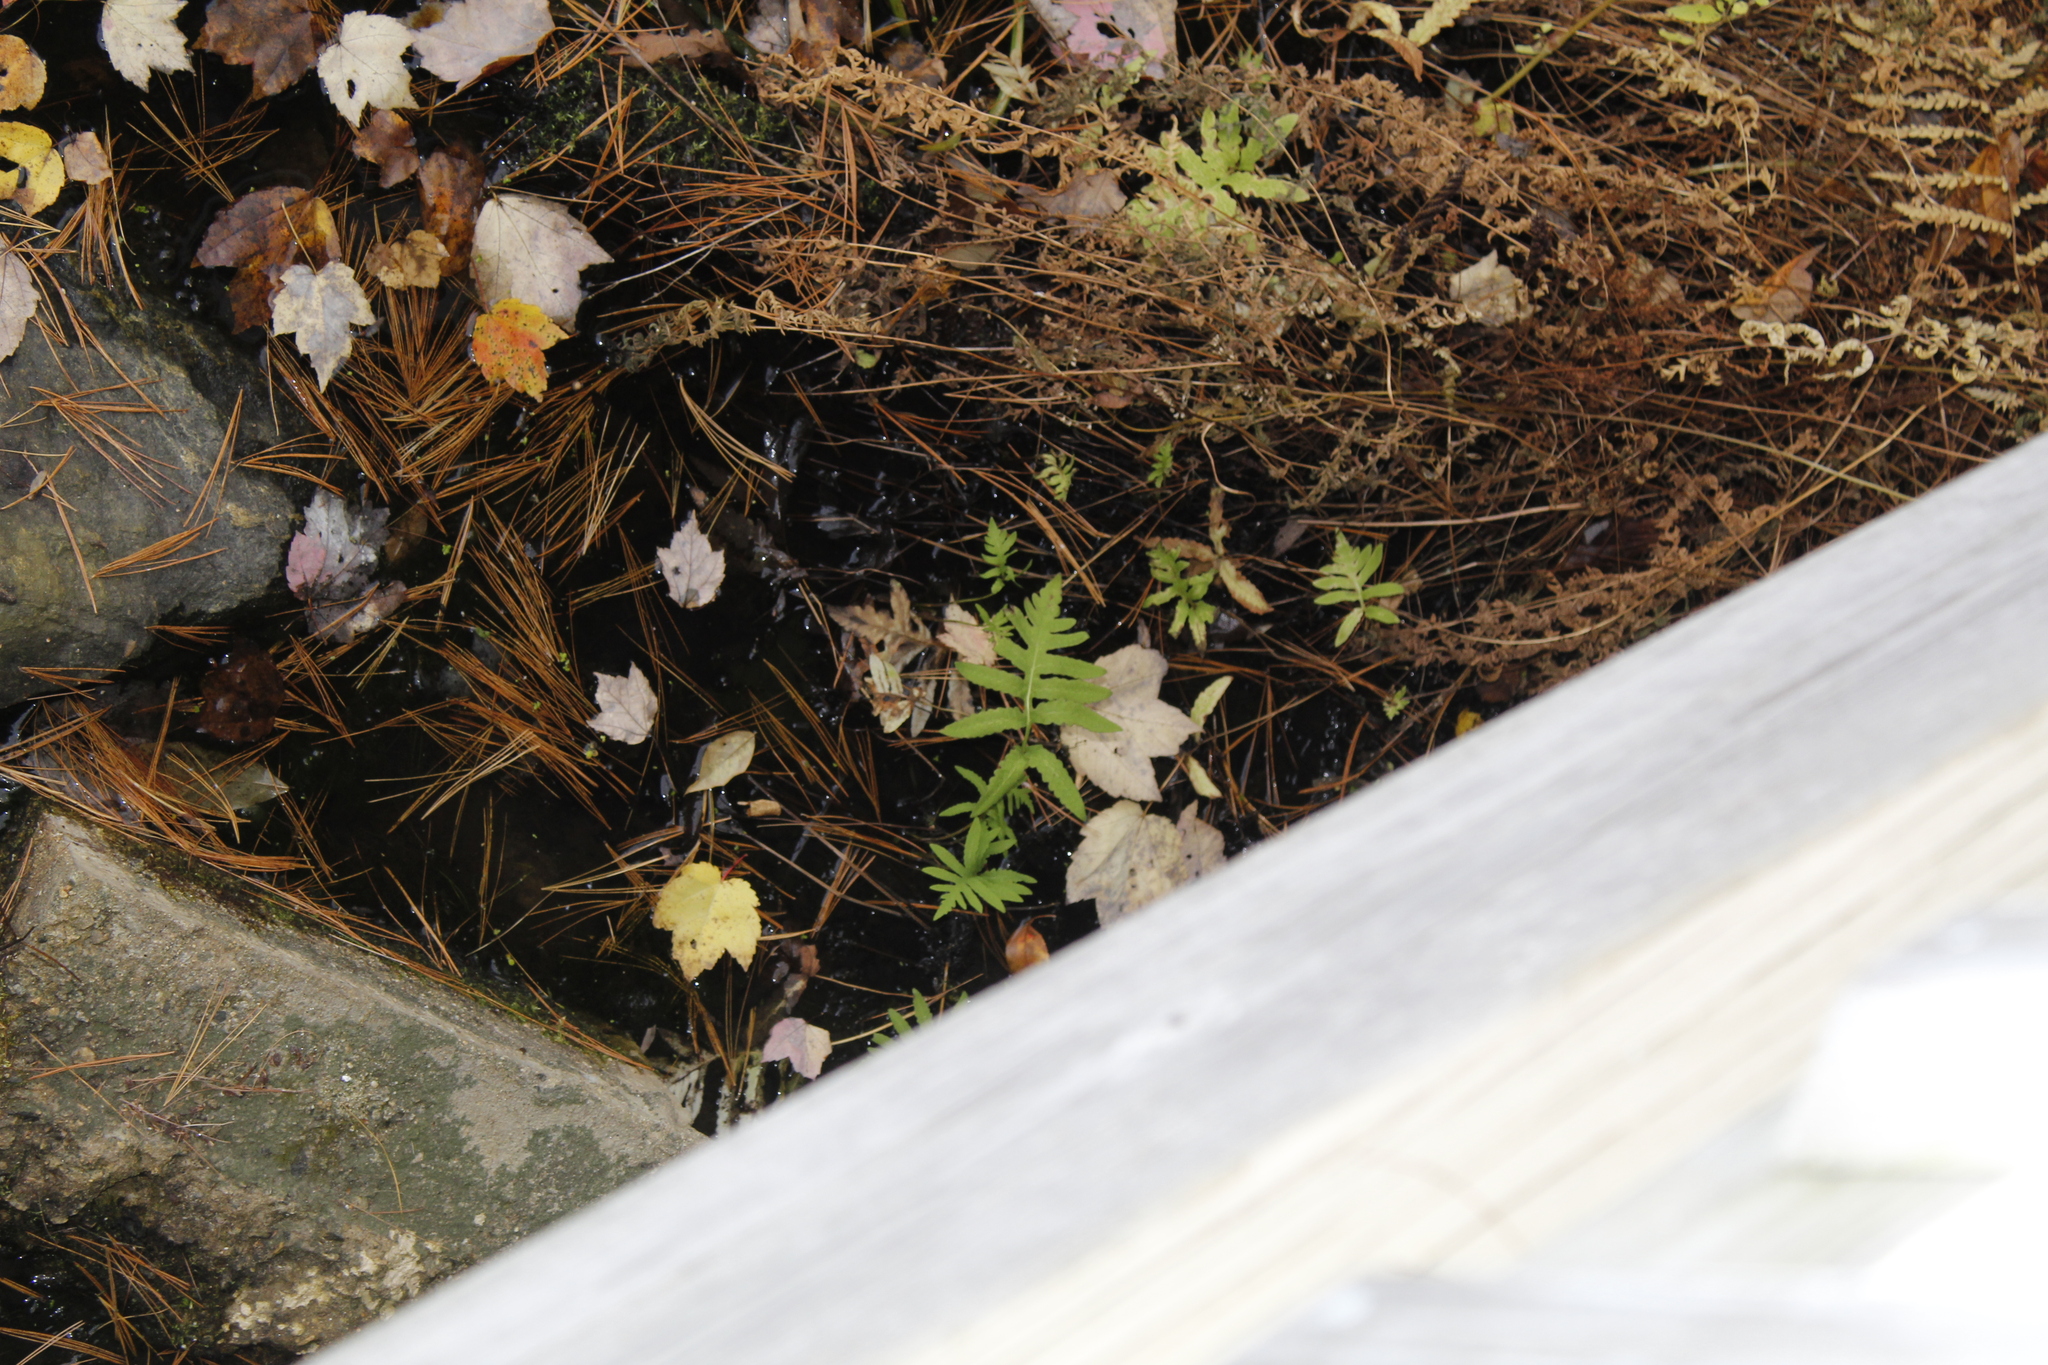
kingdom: Plantae
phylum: Tracheophyta
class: Polypodiopsida
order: Polypodiales
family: Onocleaceae
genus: Onoclea
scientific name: Onoclea sensibilis
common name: Sensitive fern
